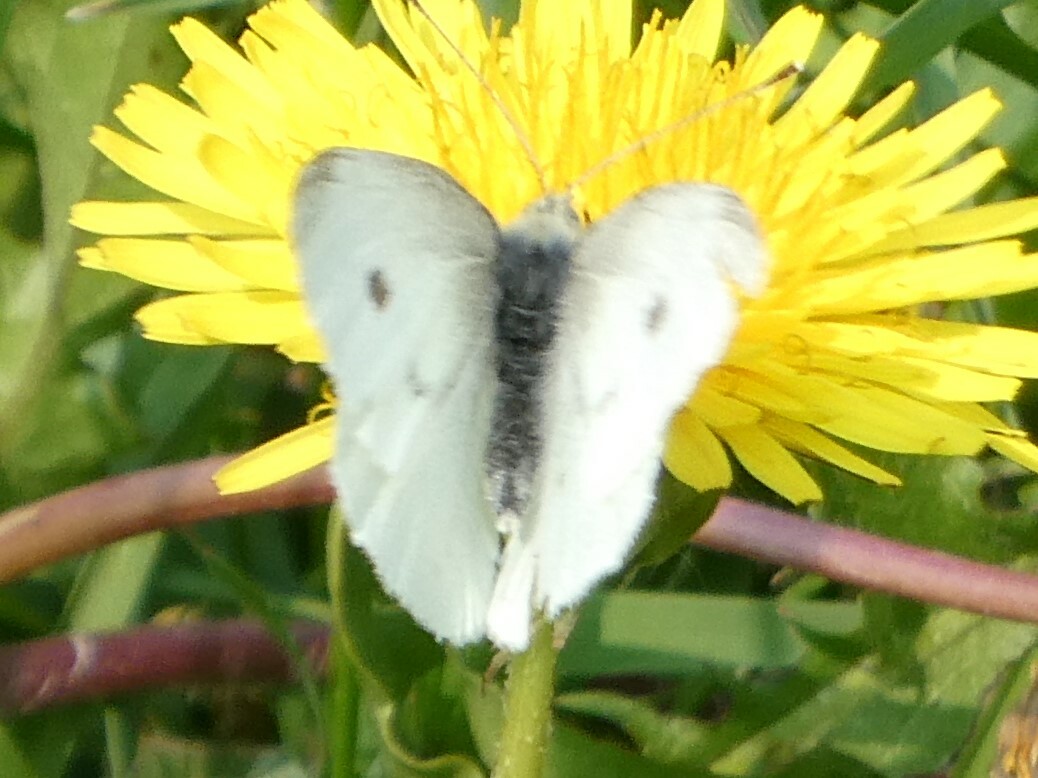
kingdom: Animalia
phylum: Arthropoda
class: Insecta
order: Lepidoptera
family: Pieridae
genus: Pieris
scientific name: Pieris rapae
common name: Small white
